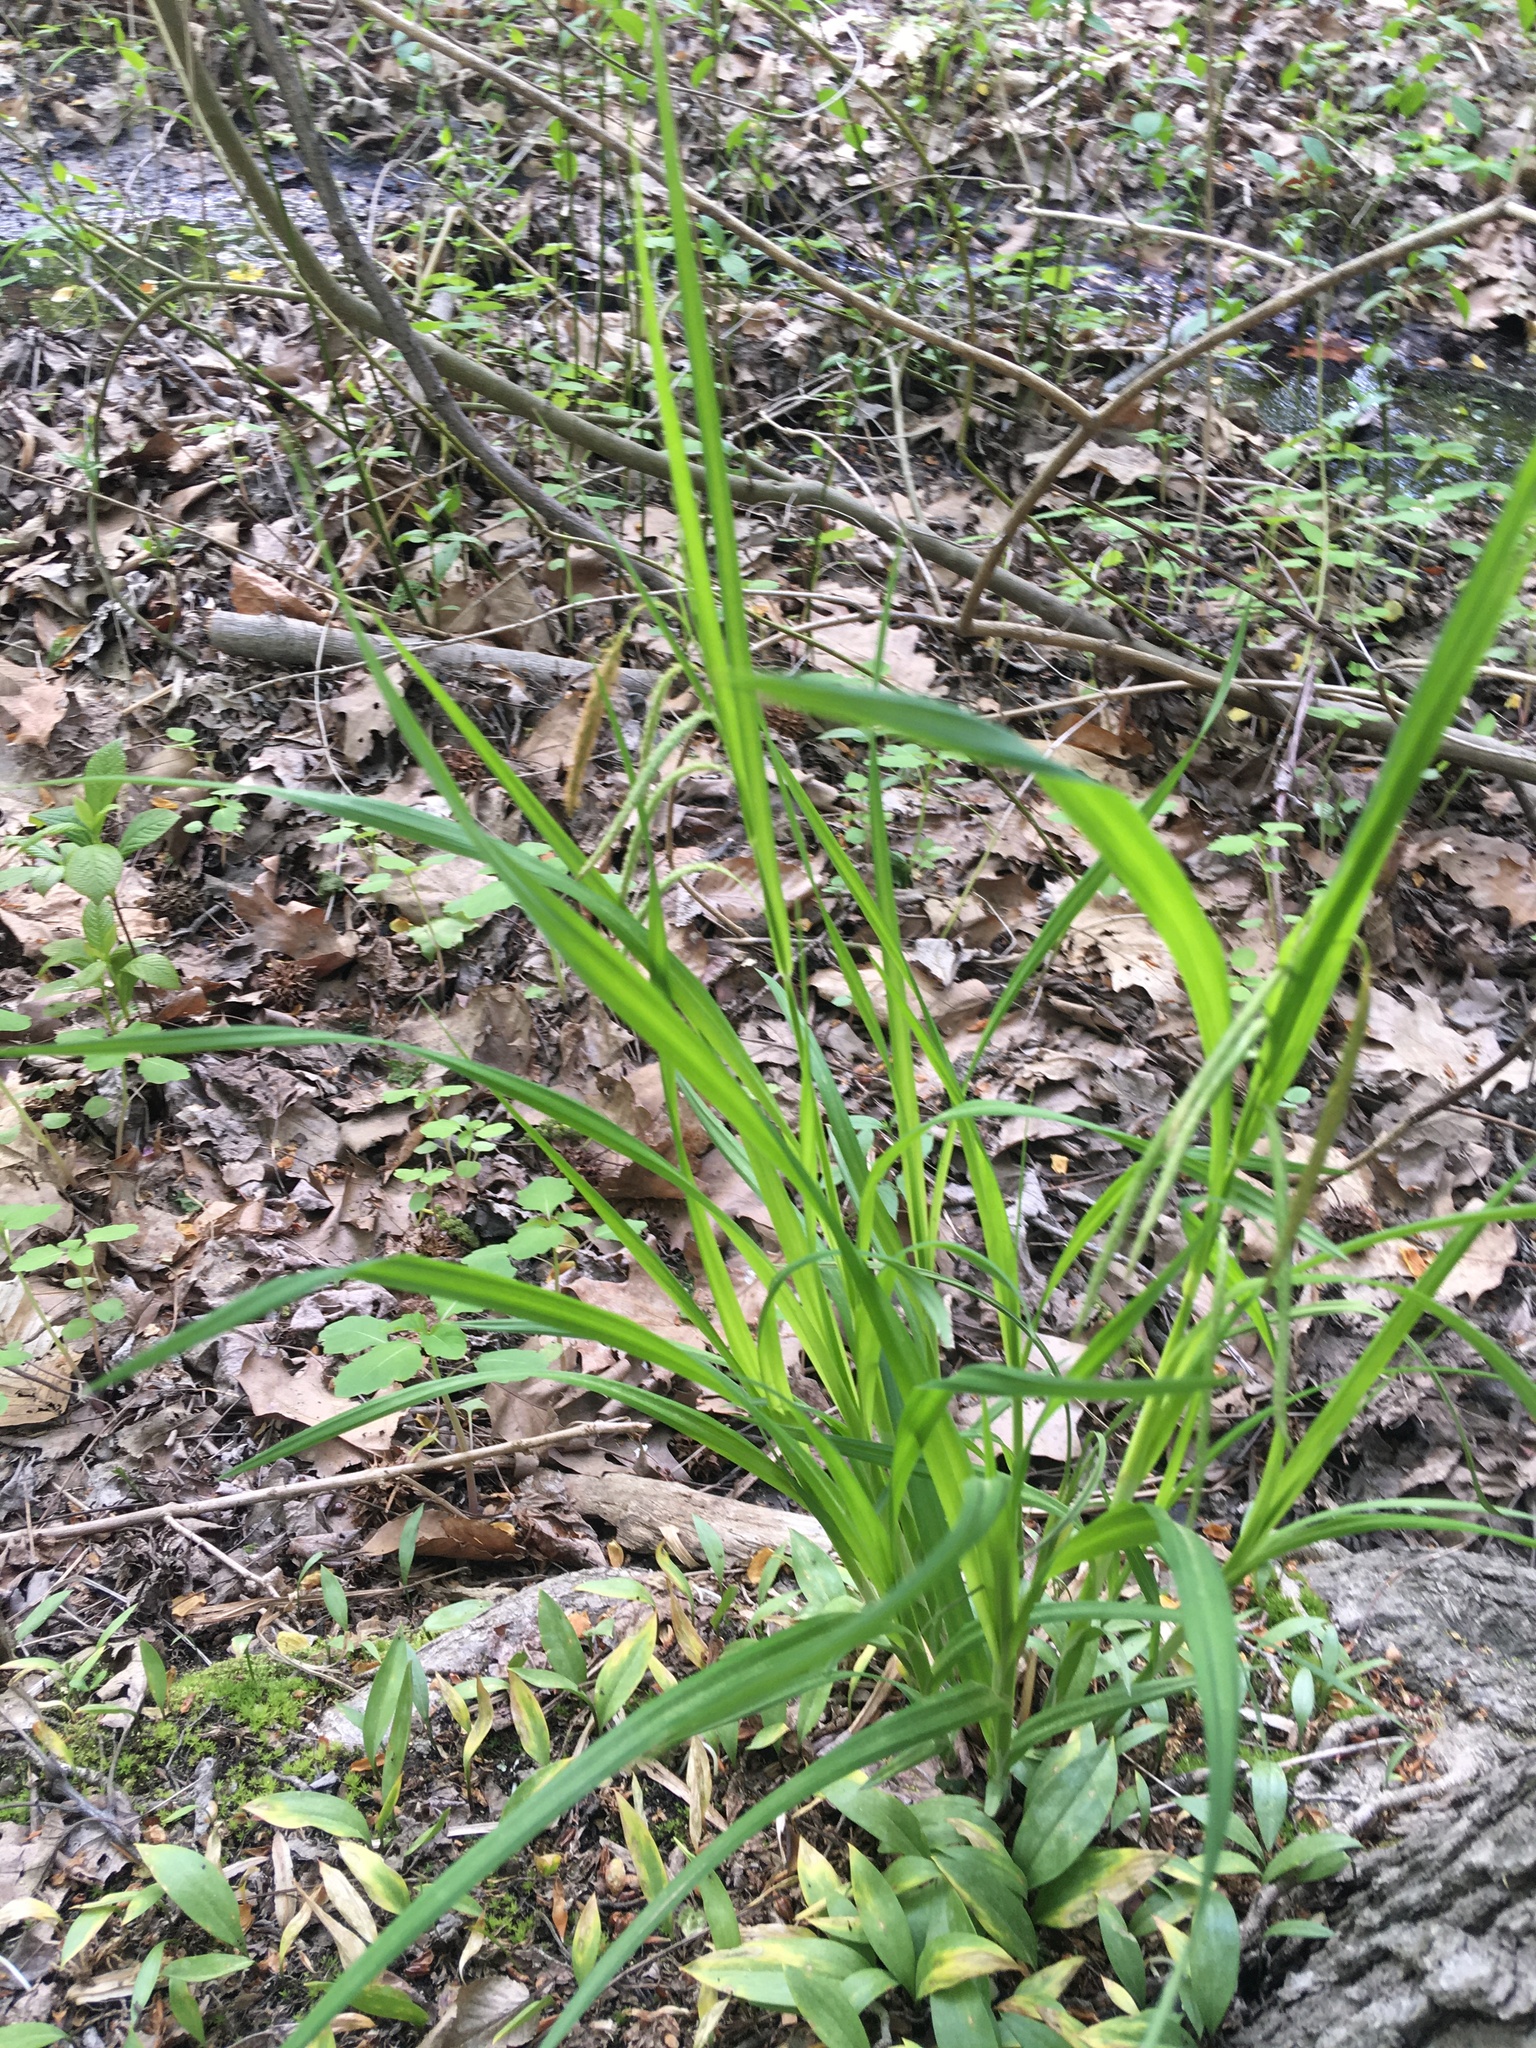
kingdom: Plantae
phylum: Tracheophyta
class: Liliopsida
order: Poales
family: Cyperaceae
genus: Carex
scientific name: Carex blanda
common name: Bland sedge
